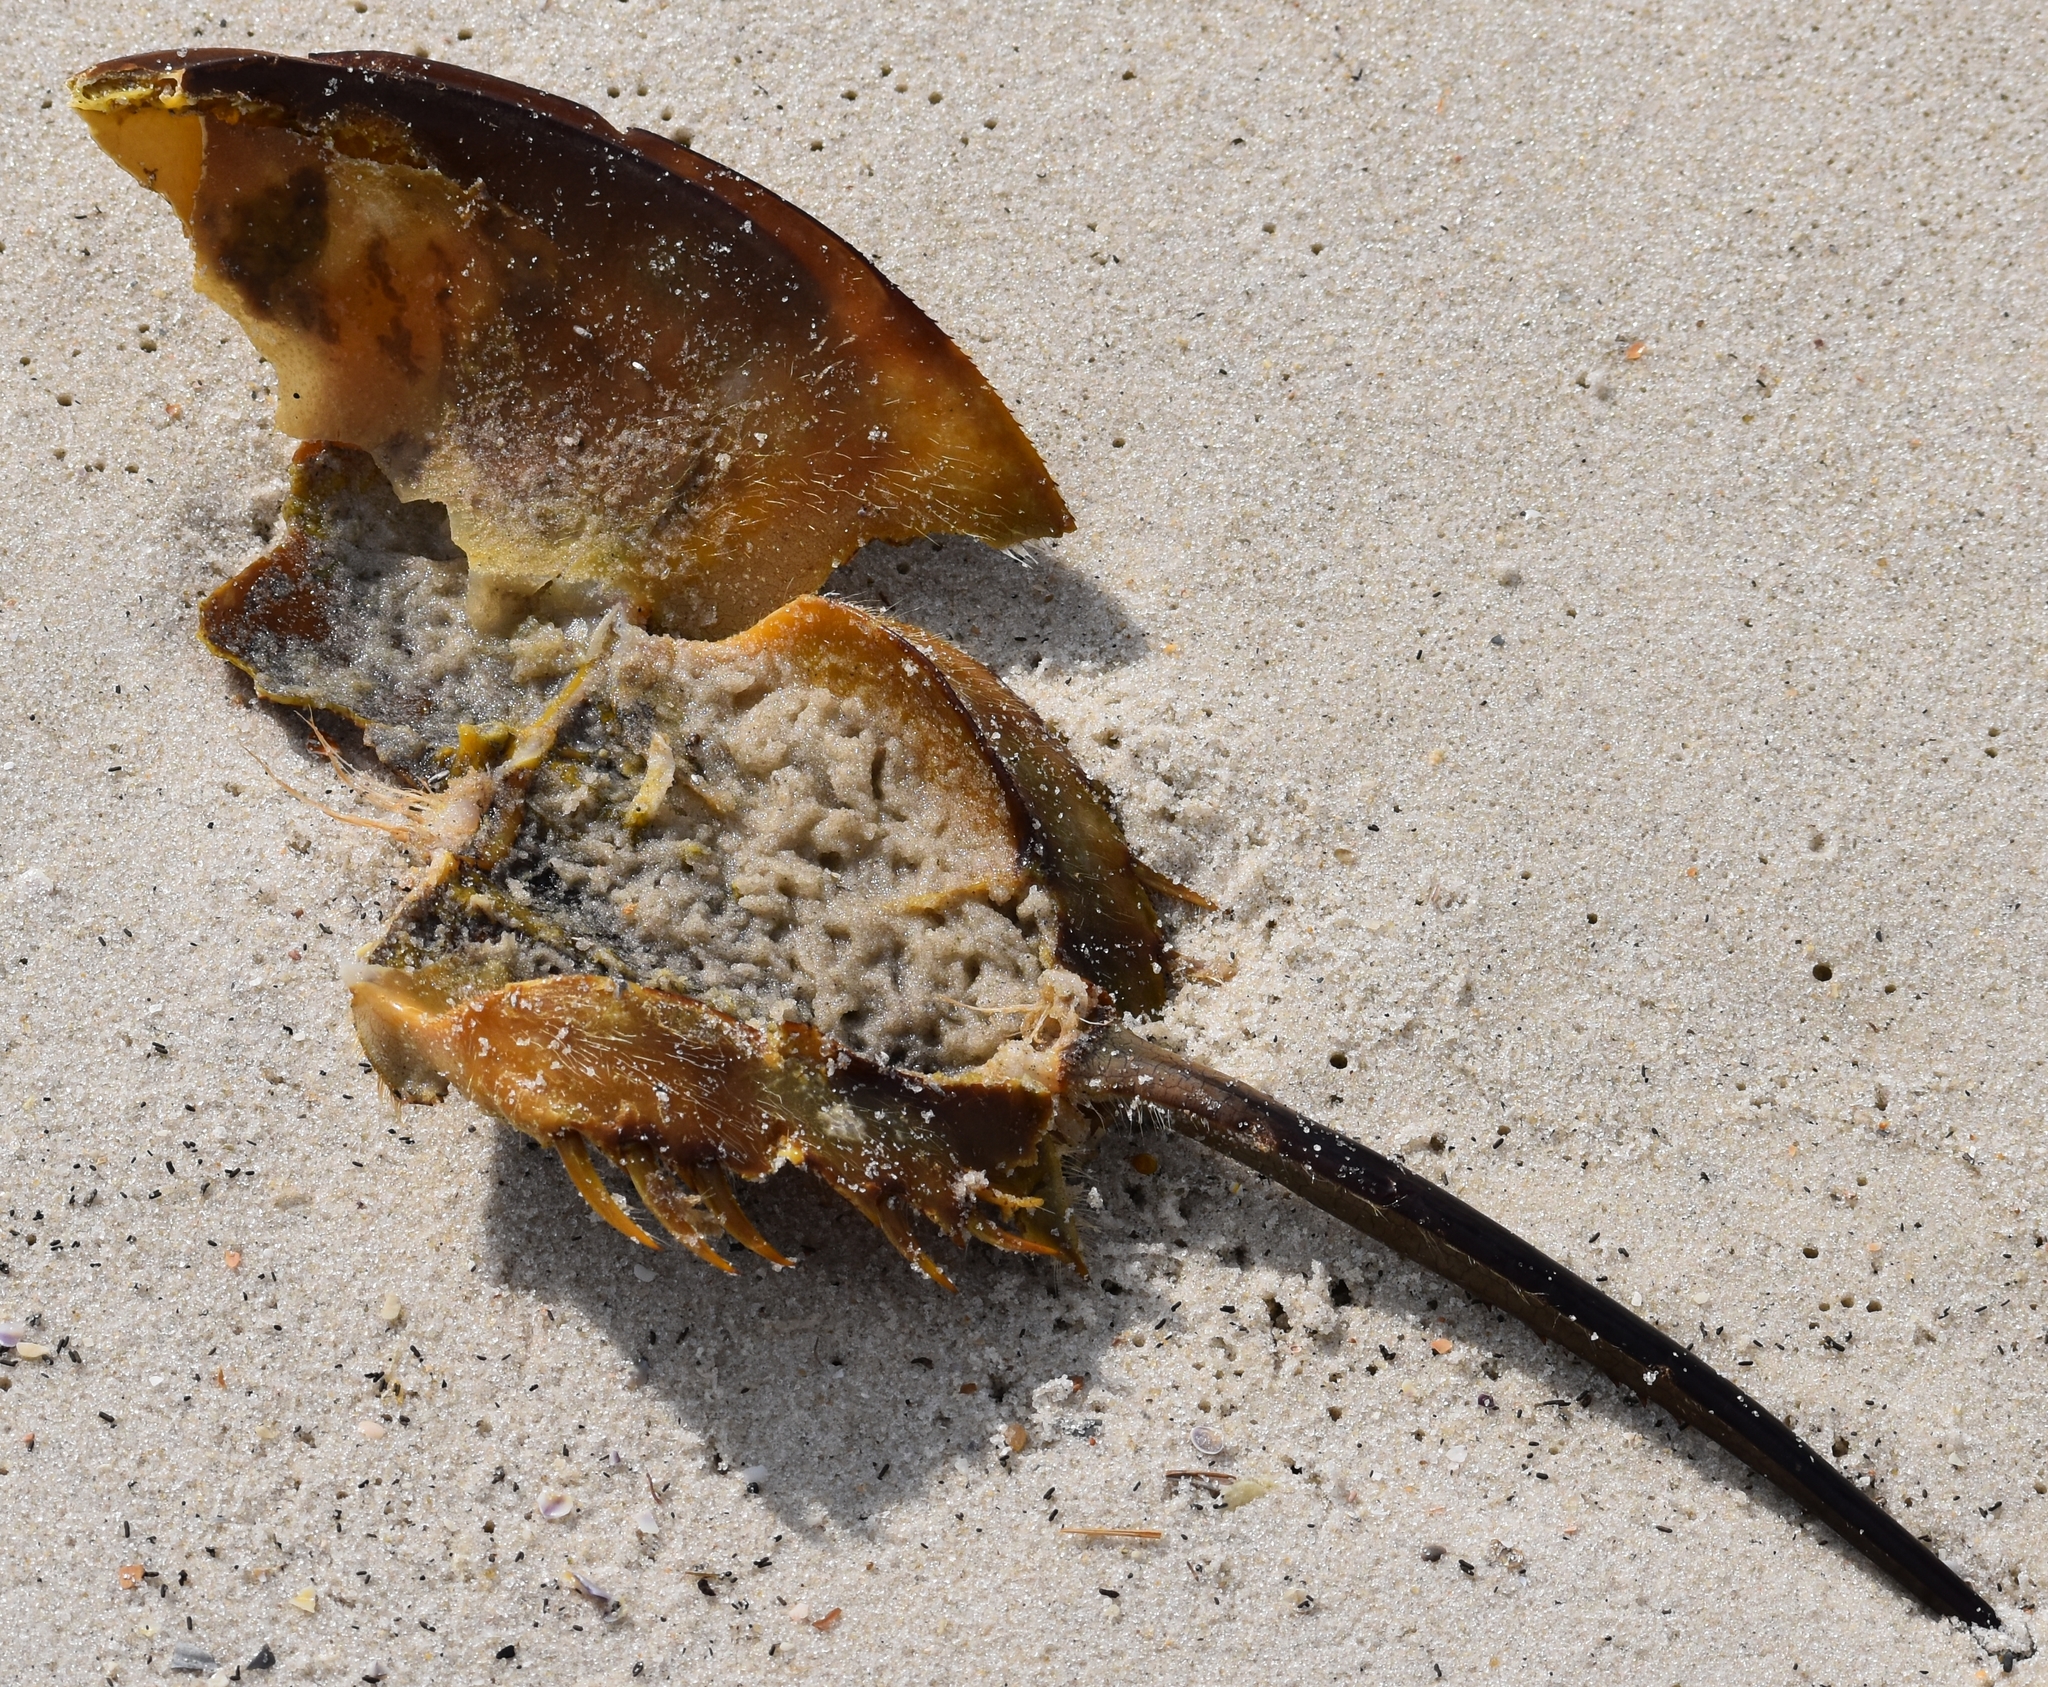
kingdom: Animalia
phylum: Arthropoda
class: Merostomata
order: Xiphosurida
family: Limulidae
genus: Limulus
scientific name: Limulus polyphemus
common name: Horseshoe crab
